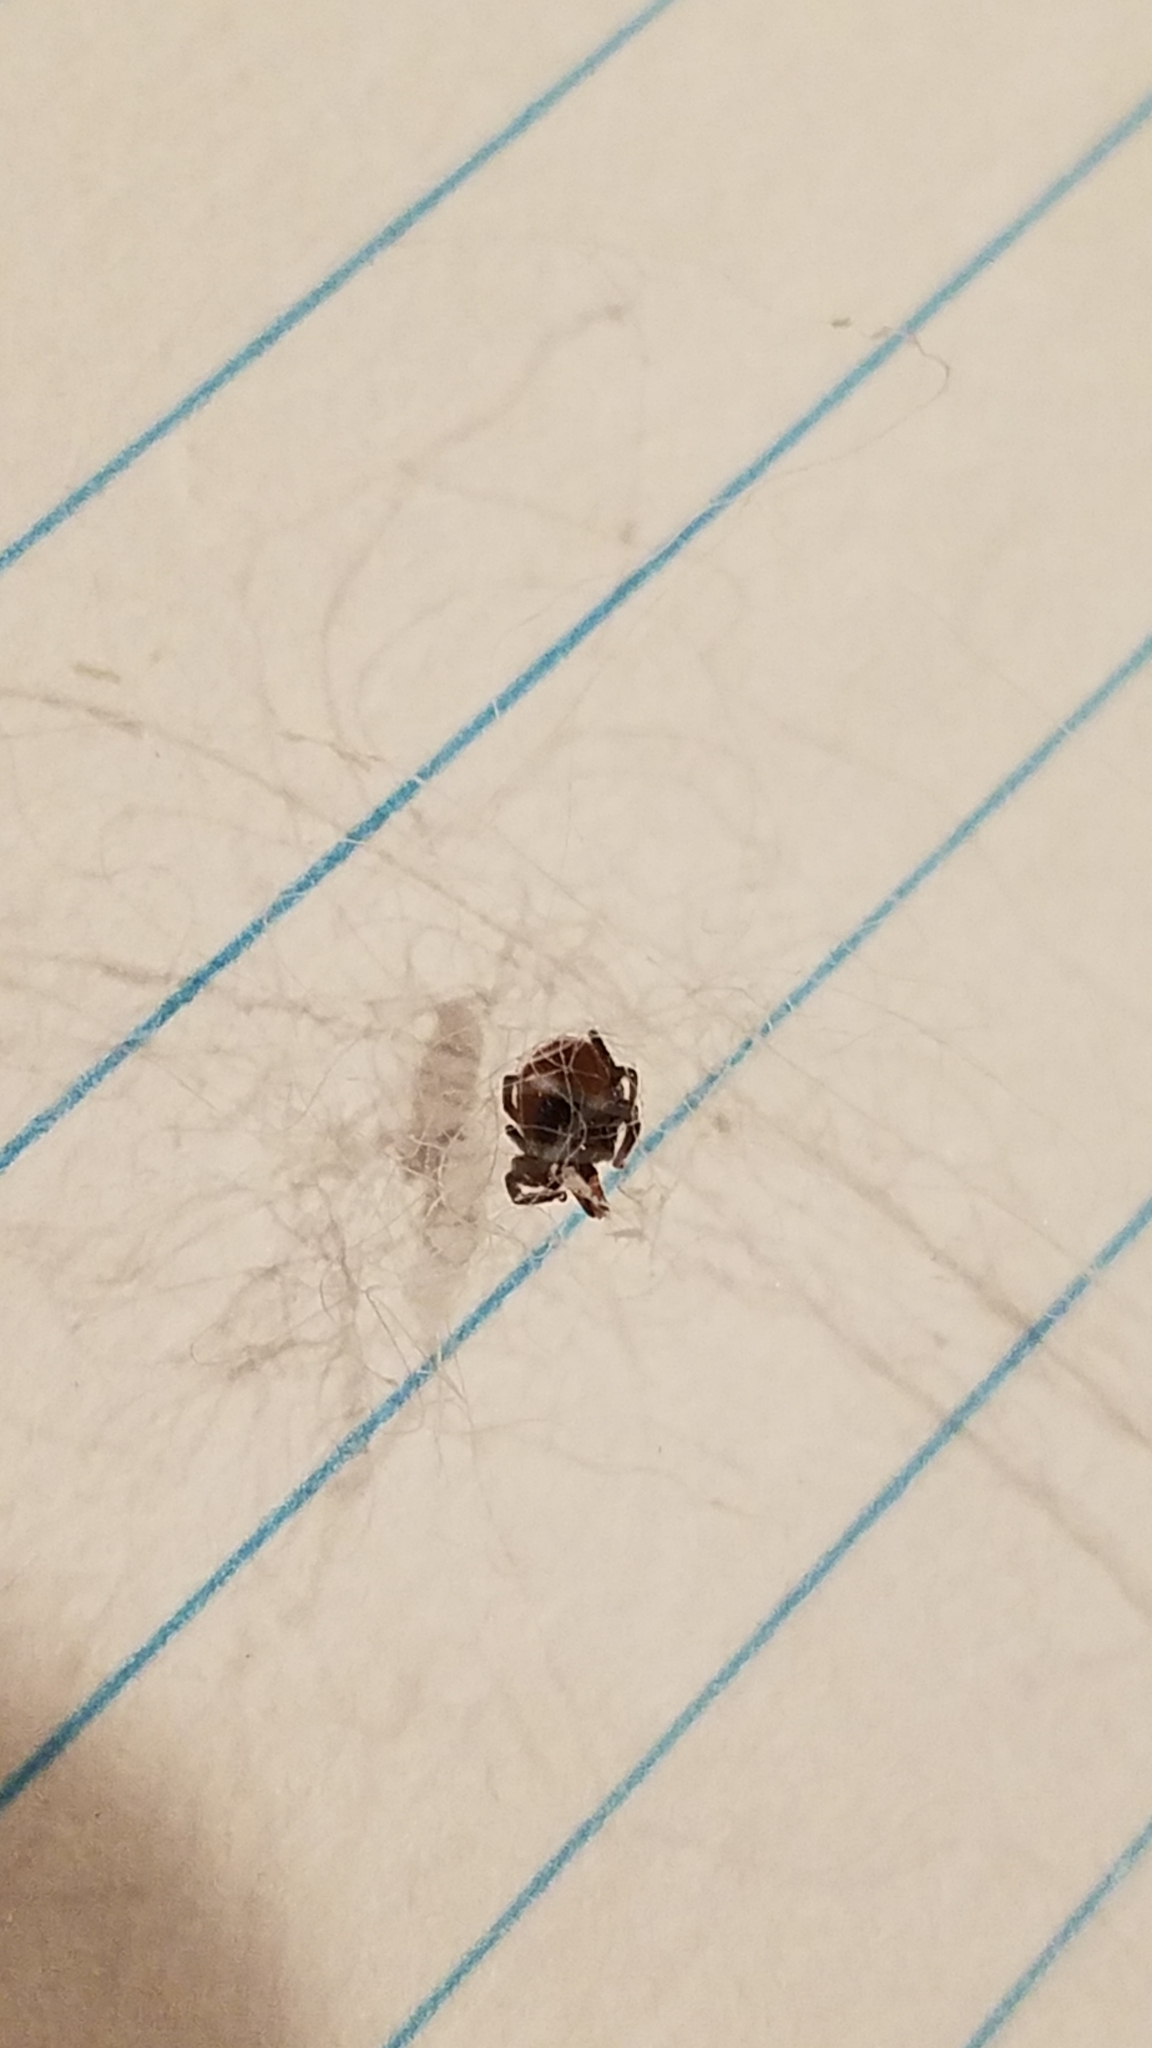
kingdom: Animalia
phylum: Arthropoda
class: Arachnida
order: Ixodida
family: Ixodidae
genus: Ixodes
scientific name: Ixodes scapularis
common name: Black legged tick
